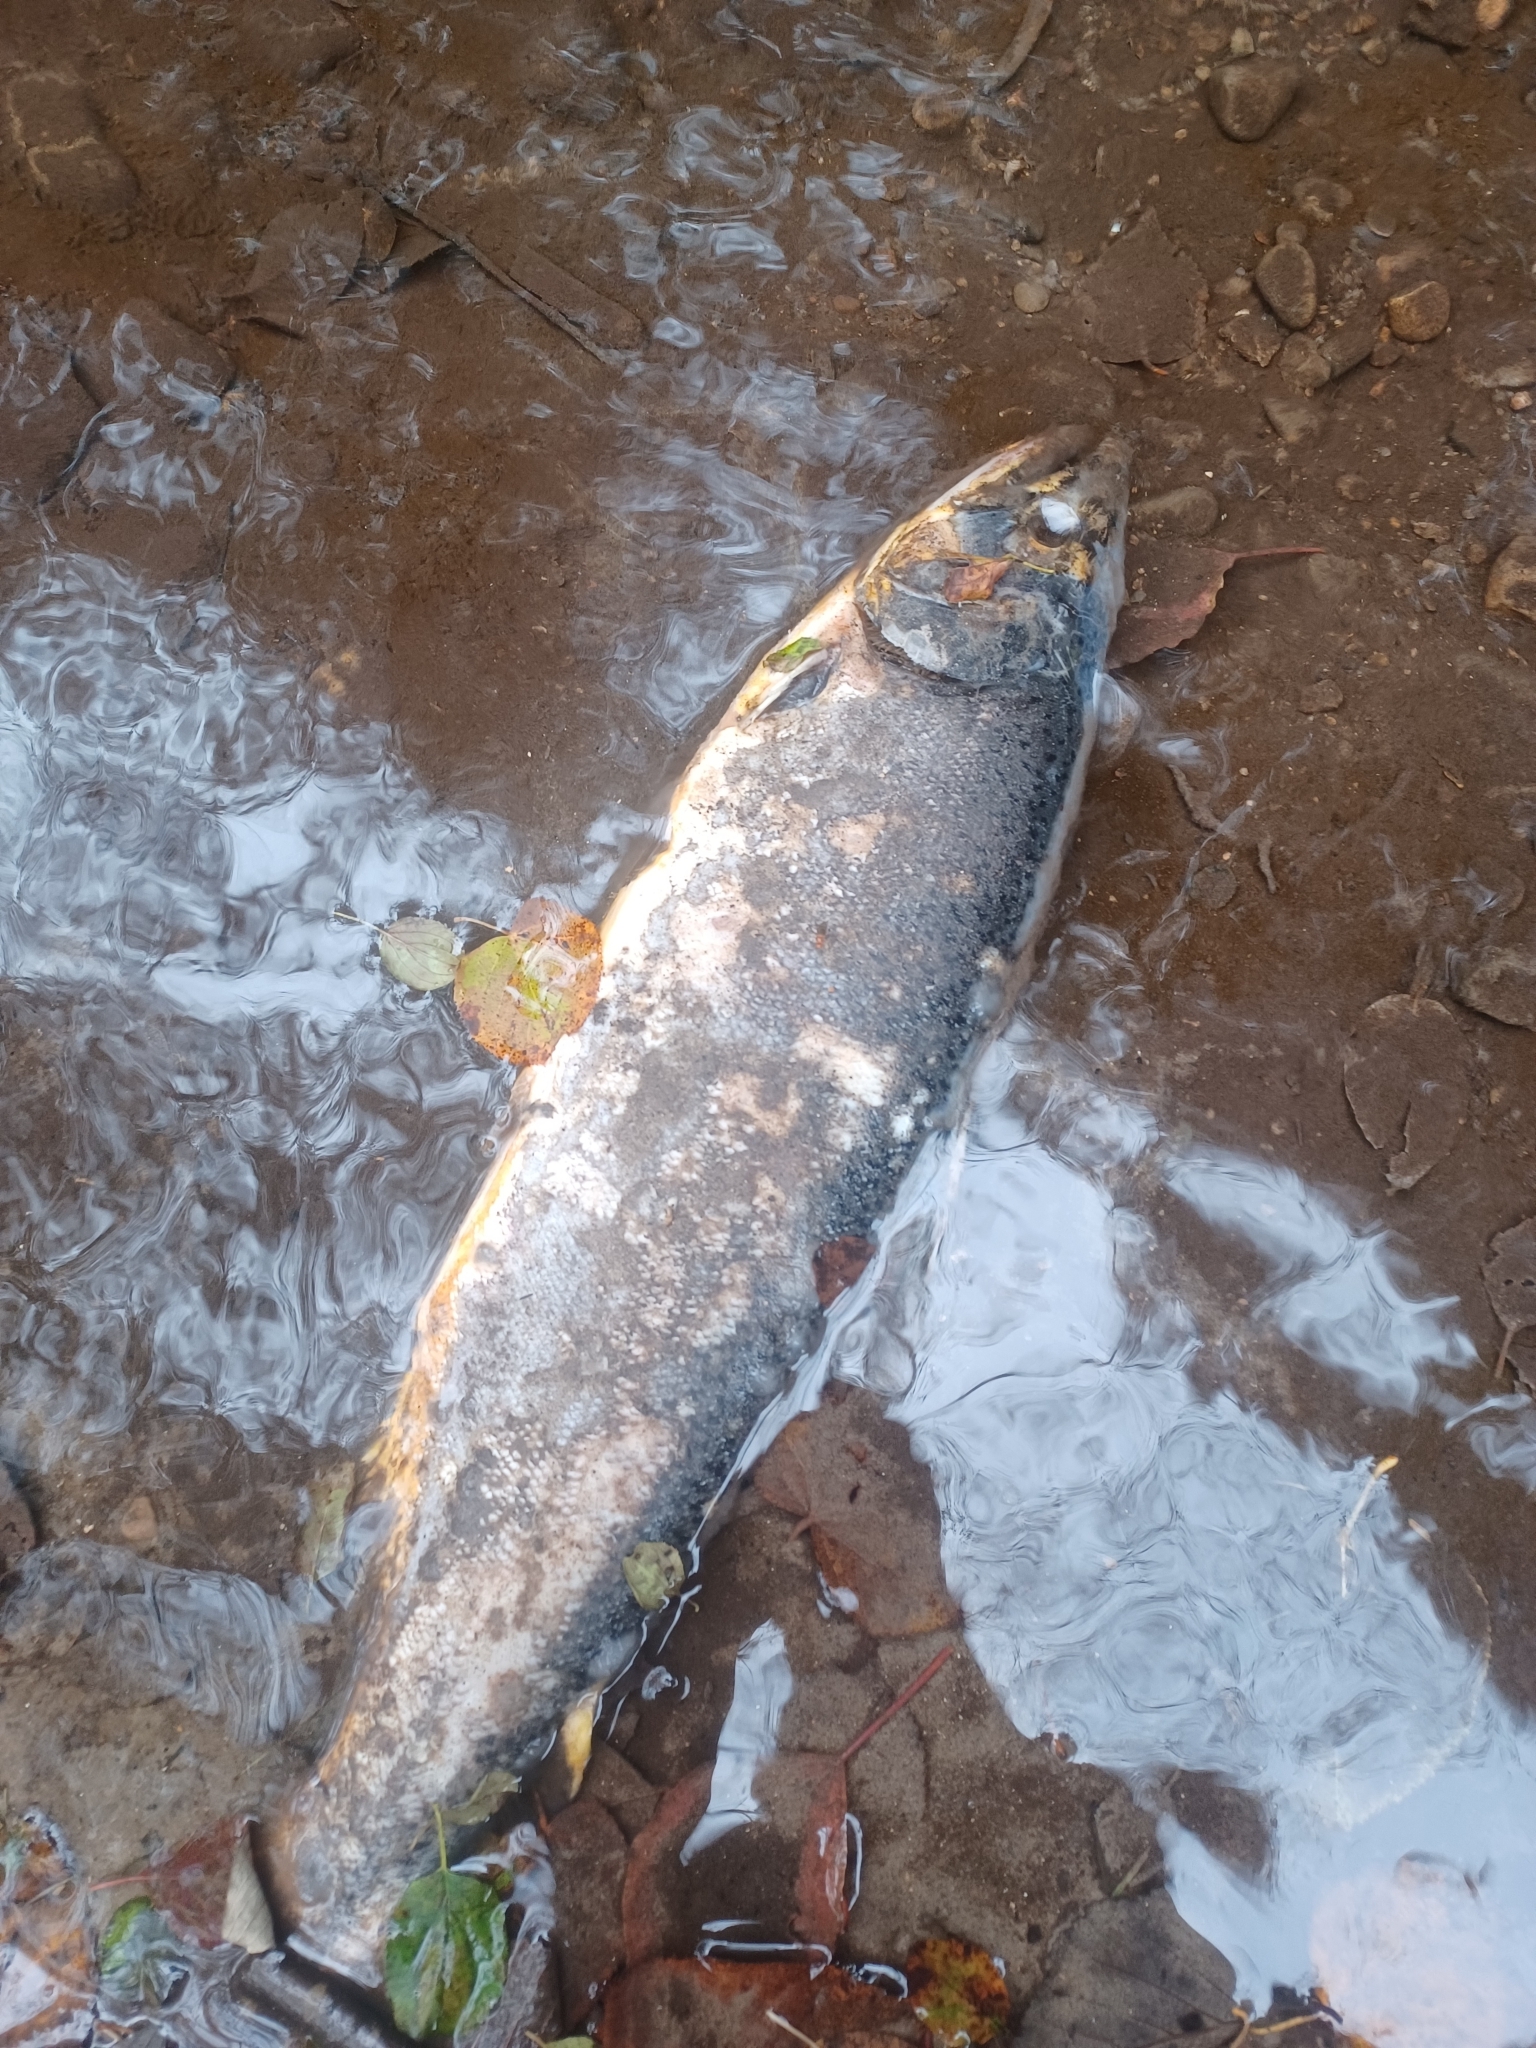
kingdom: Animalia
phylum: Chordata
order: Salmoniformes
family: Salmonidae
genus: Oncorhynchus
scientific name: Oncorhynchus tshawytscha
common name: Chinook salmon
